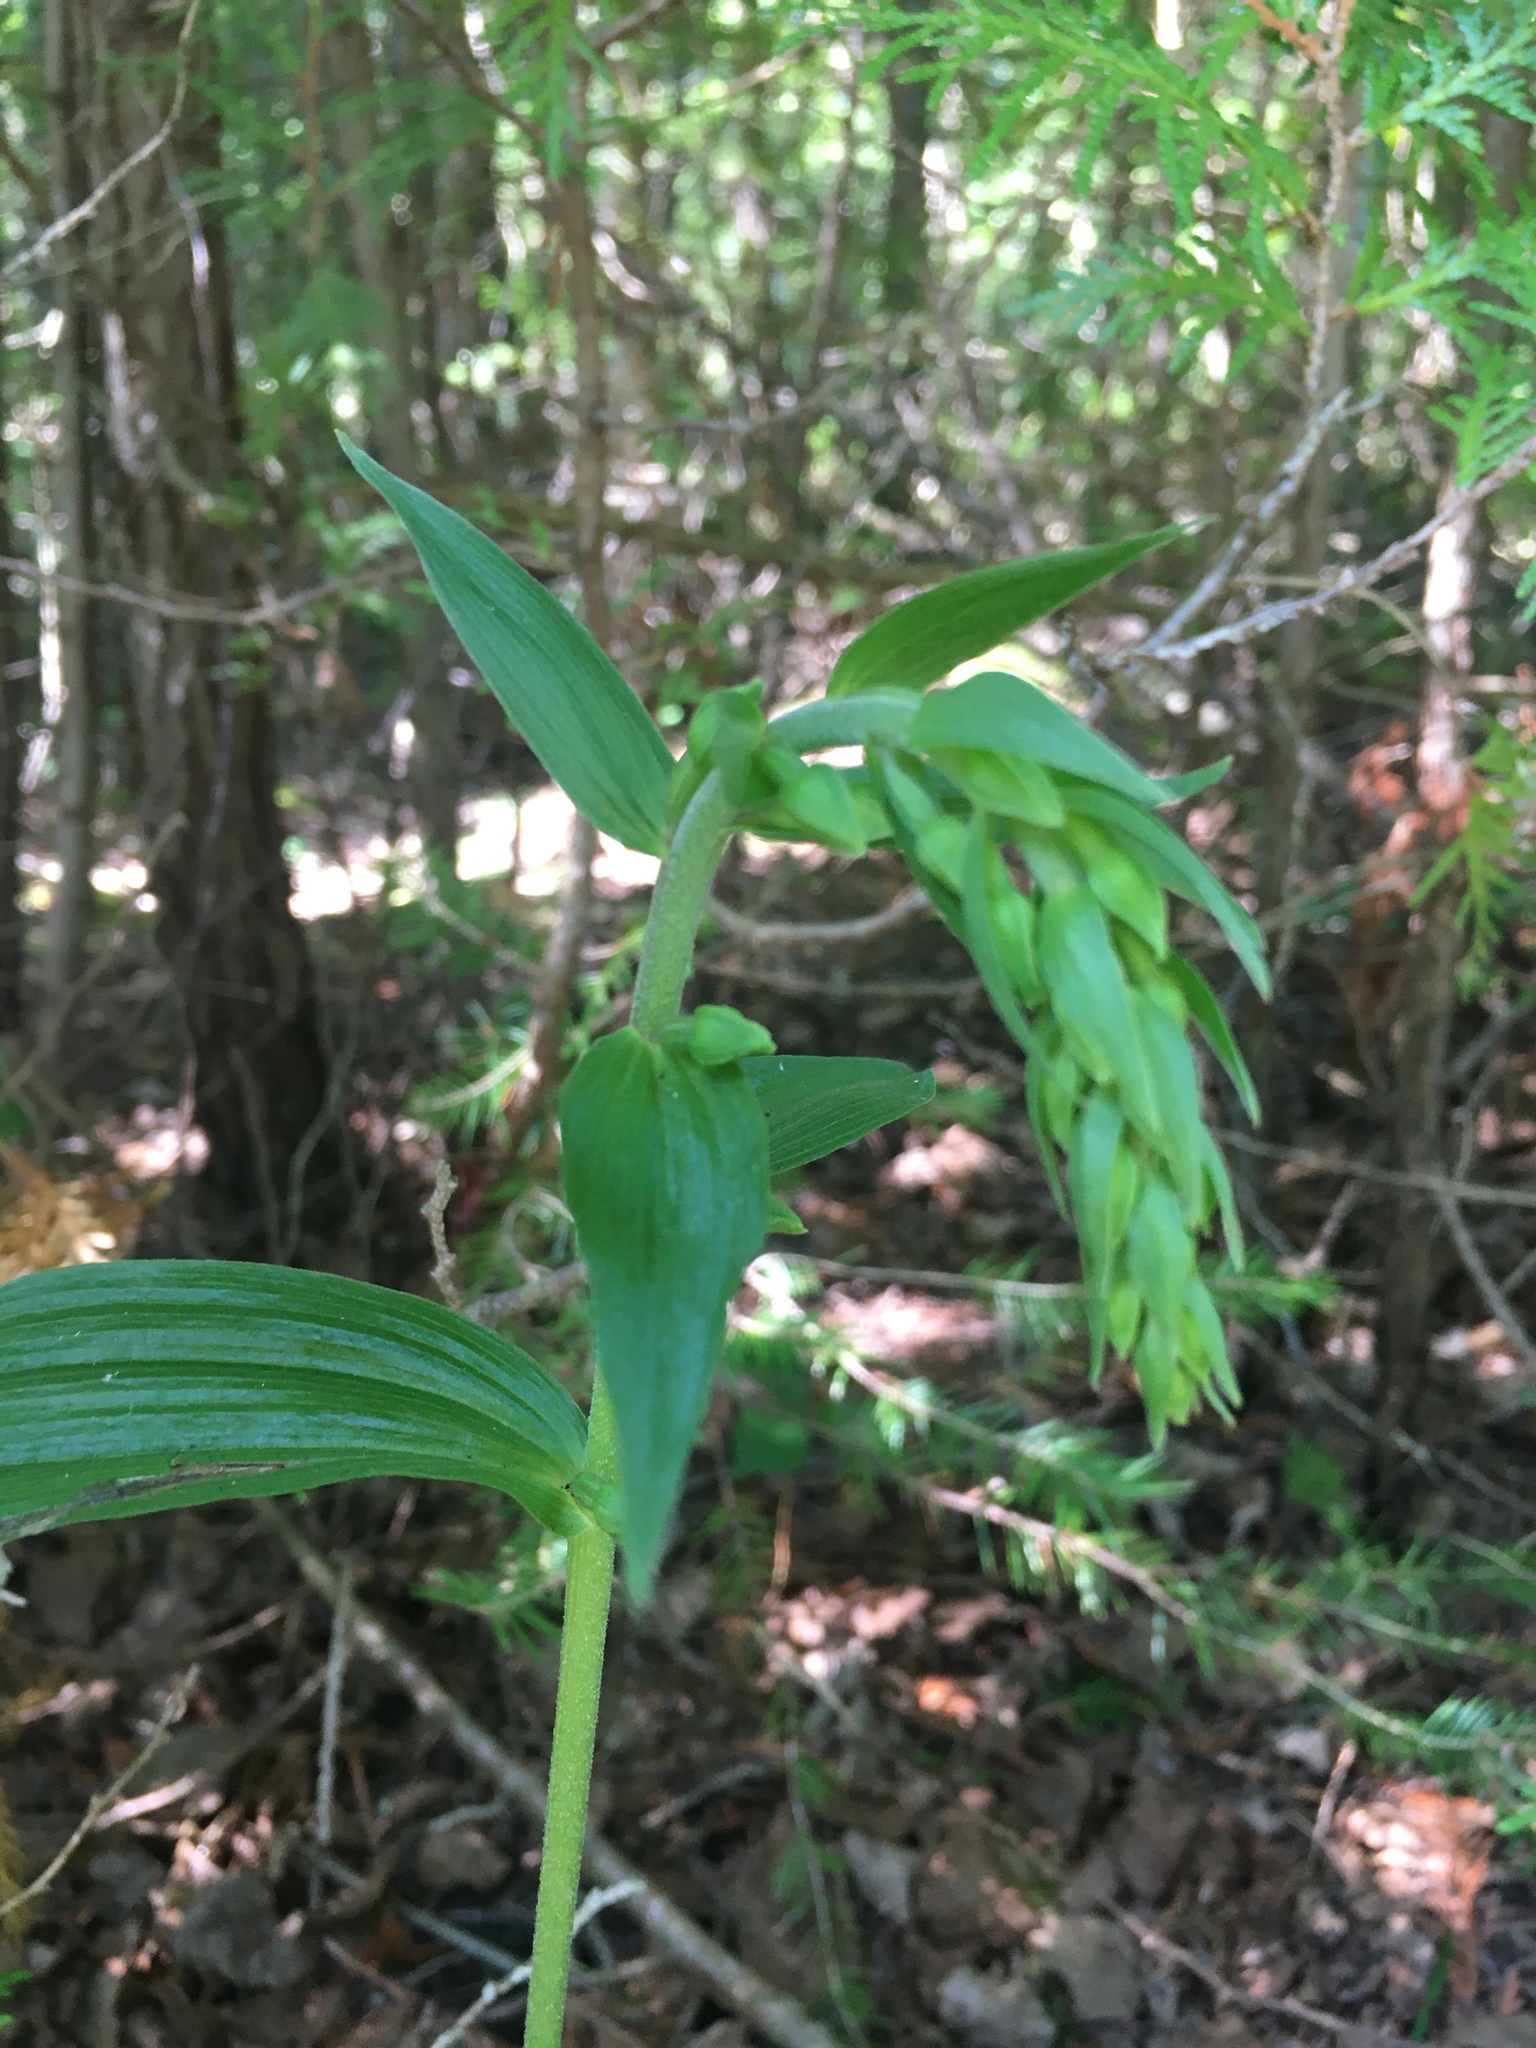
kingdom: Plantae
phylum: Tracheophyta
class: Liliopsida
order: Asparagales
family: Orchidaceae
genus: Epipactis
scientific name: Epipactis helleborine
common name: Broad-leaved helleborine
